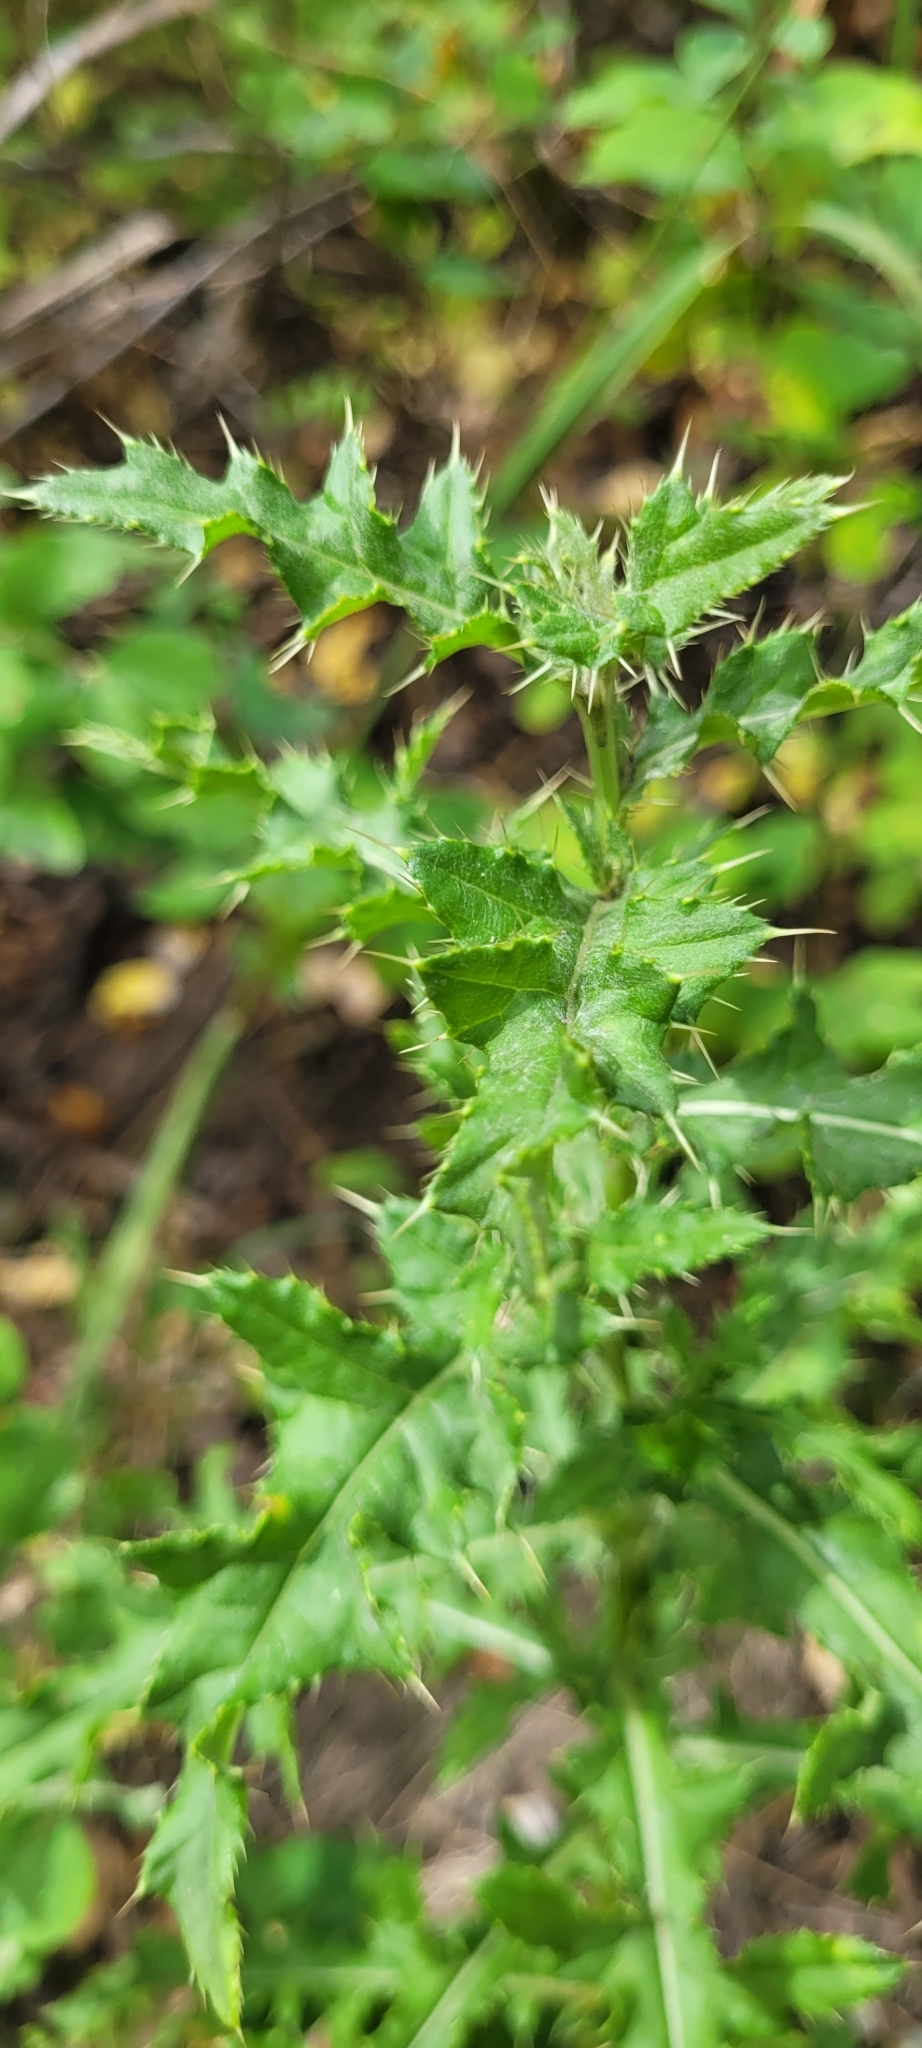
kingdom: Plantae
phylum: Tracheophyta
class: Magnoliopsida
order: Asterales
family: Asteraceae
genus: Cirsium
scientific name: Cirsium arvense
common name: Creeping thistle
